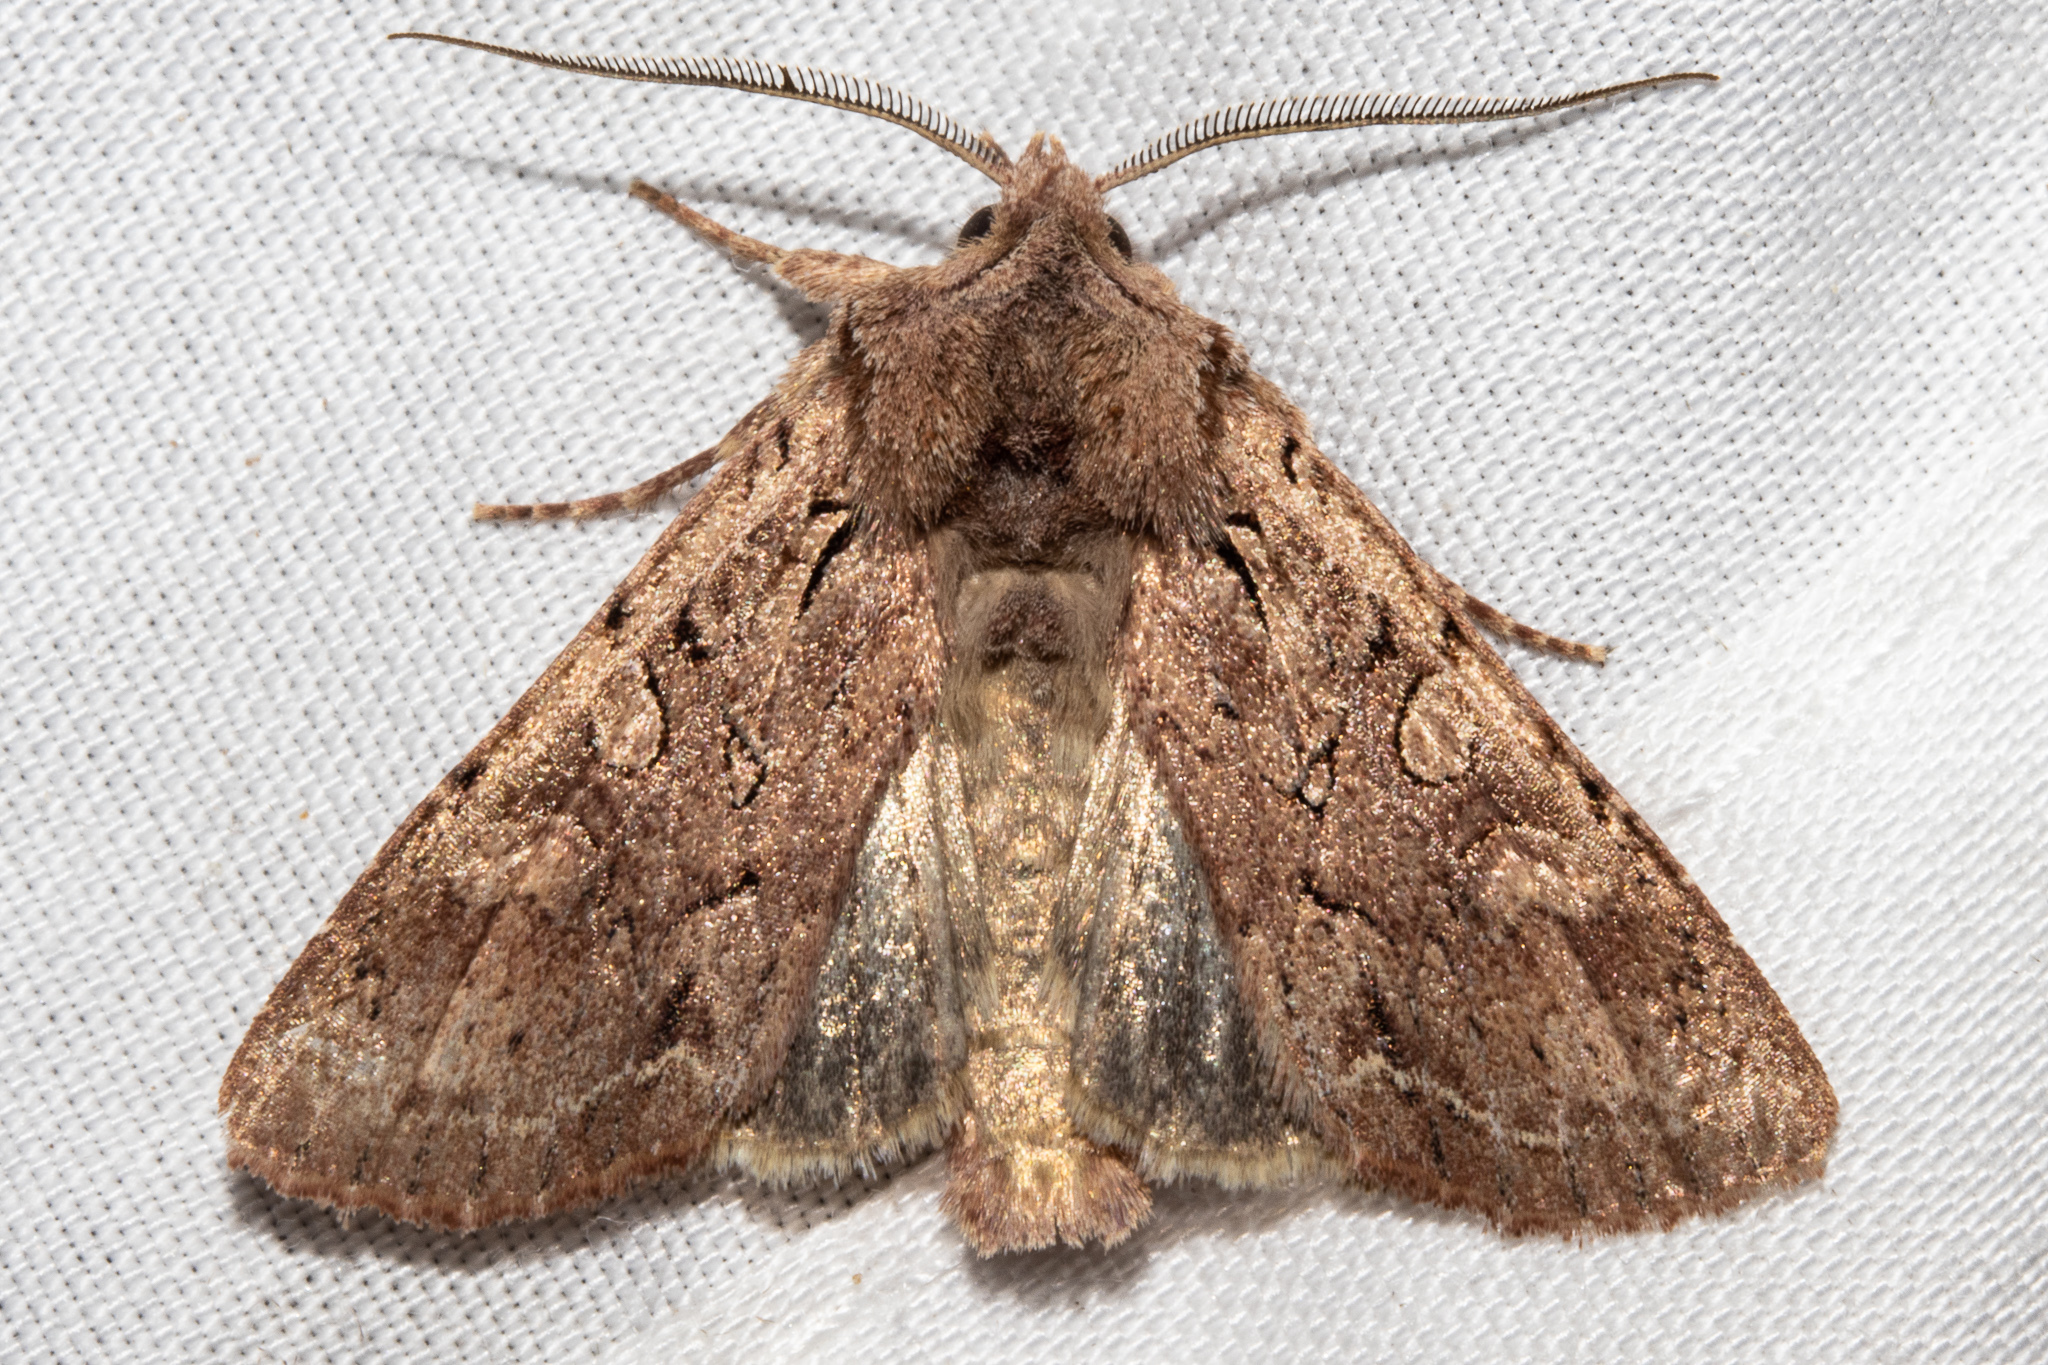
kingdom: Animalia
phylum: Arthropoda
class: Insecta
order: Lepidoptera
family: Noctuidae
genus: Ichneutica
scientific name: Ichneutica
